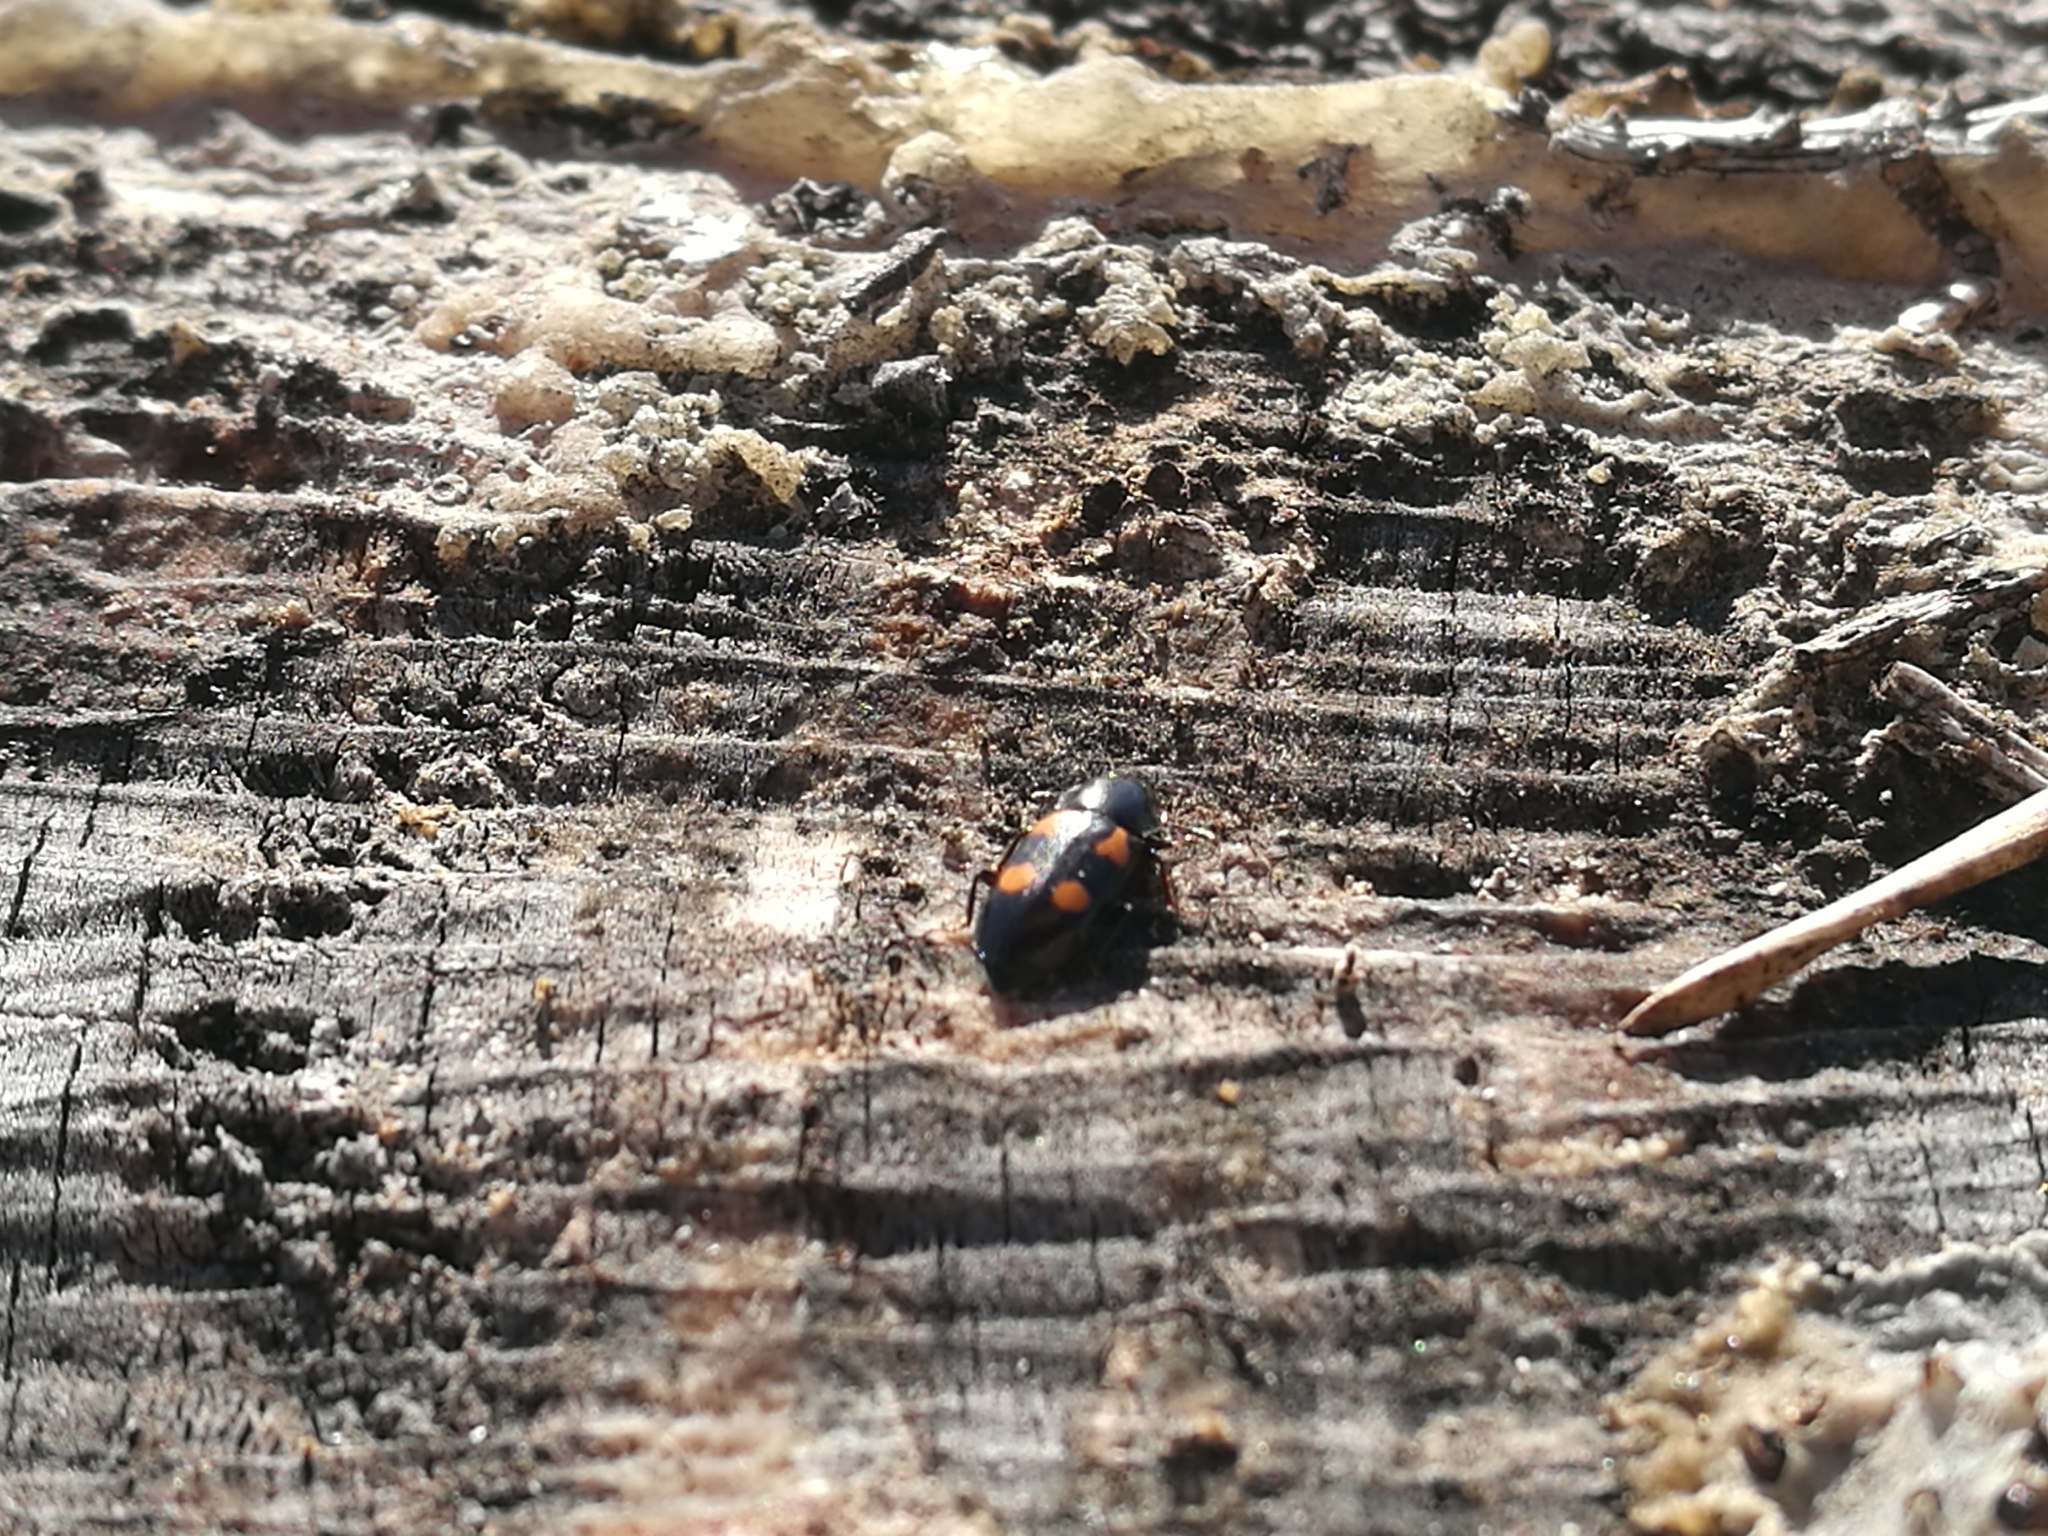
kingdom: Animalia
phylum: Arthropoda
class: Insecta
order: Coleoptera
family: Nitidulidae
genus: Glischrochilus
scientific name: Glischrochilus quadripunctatus
